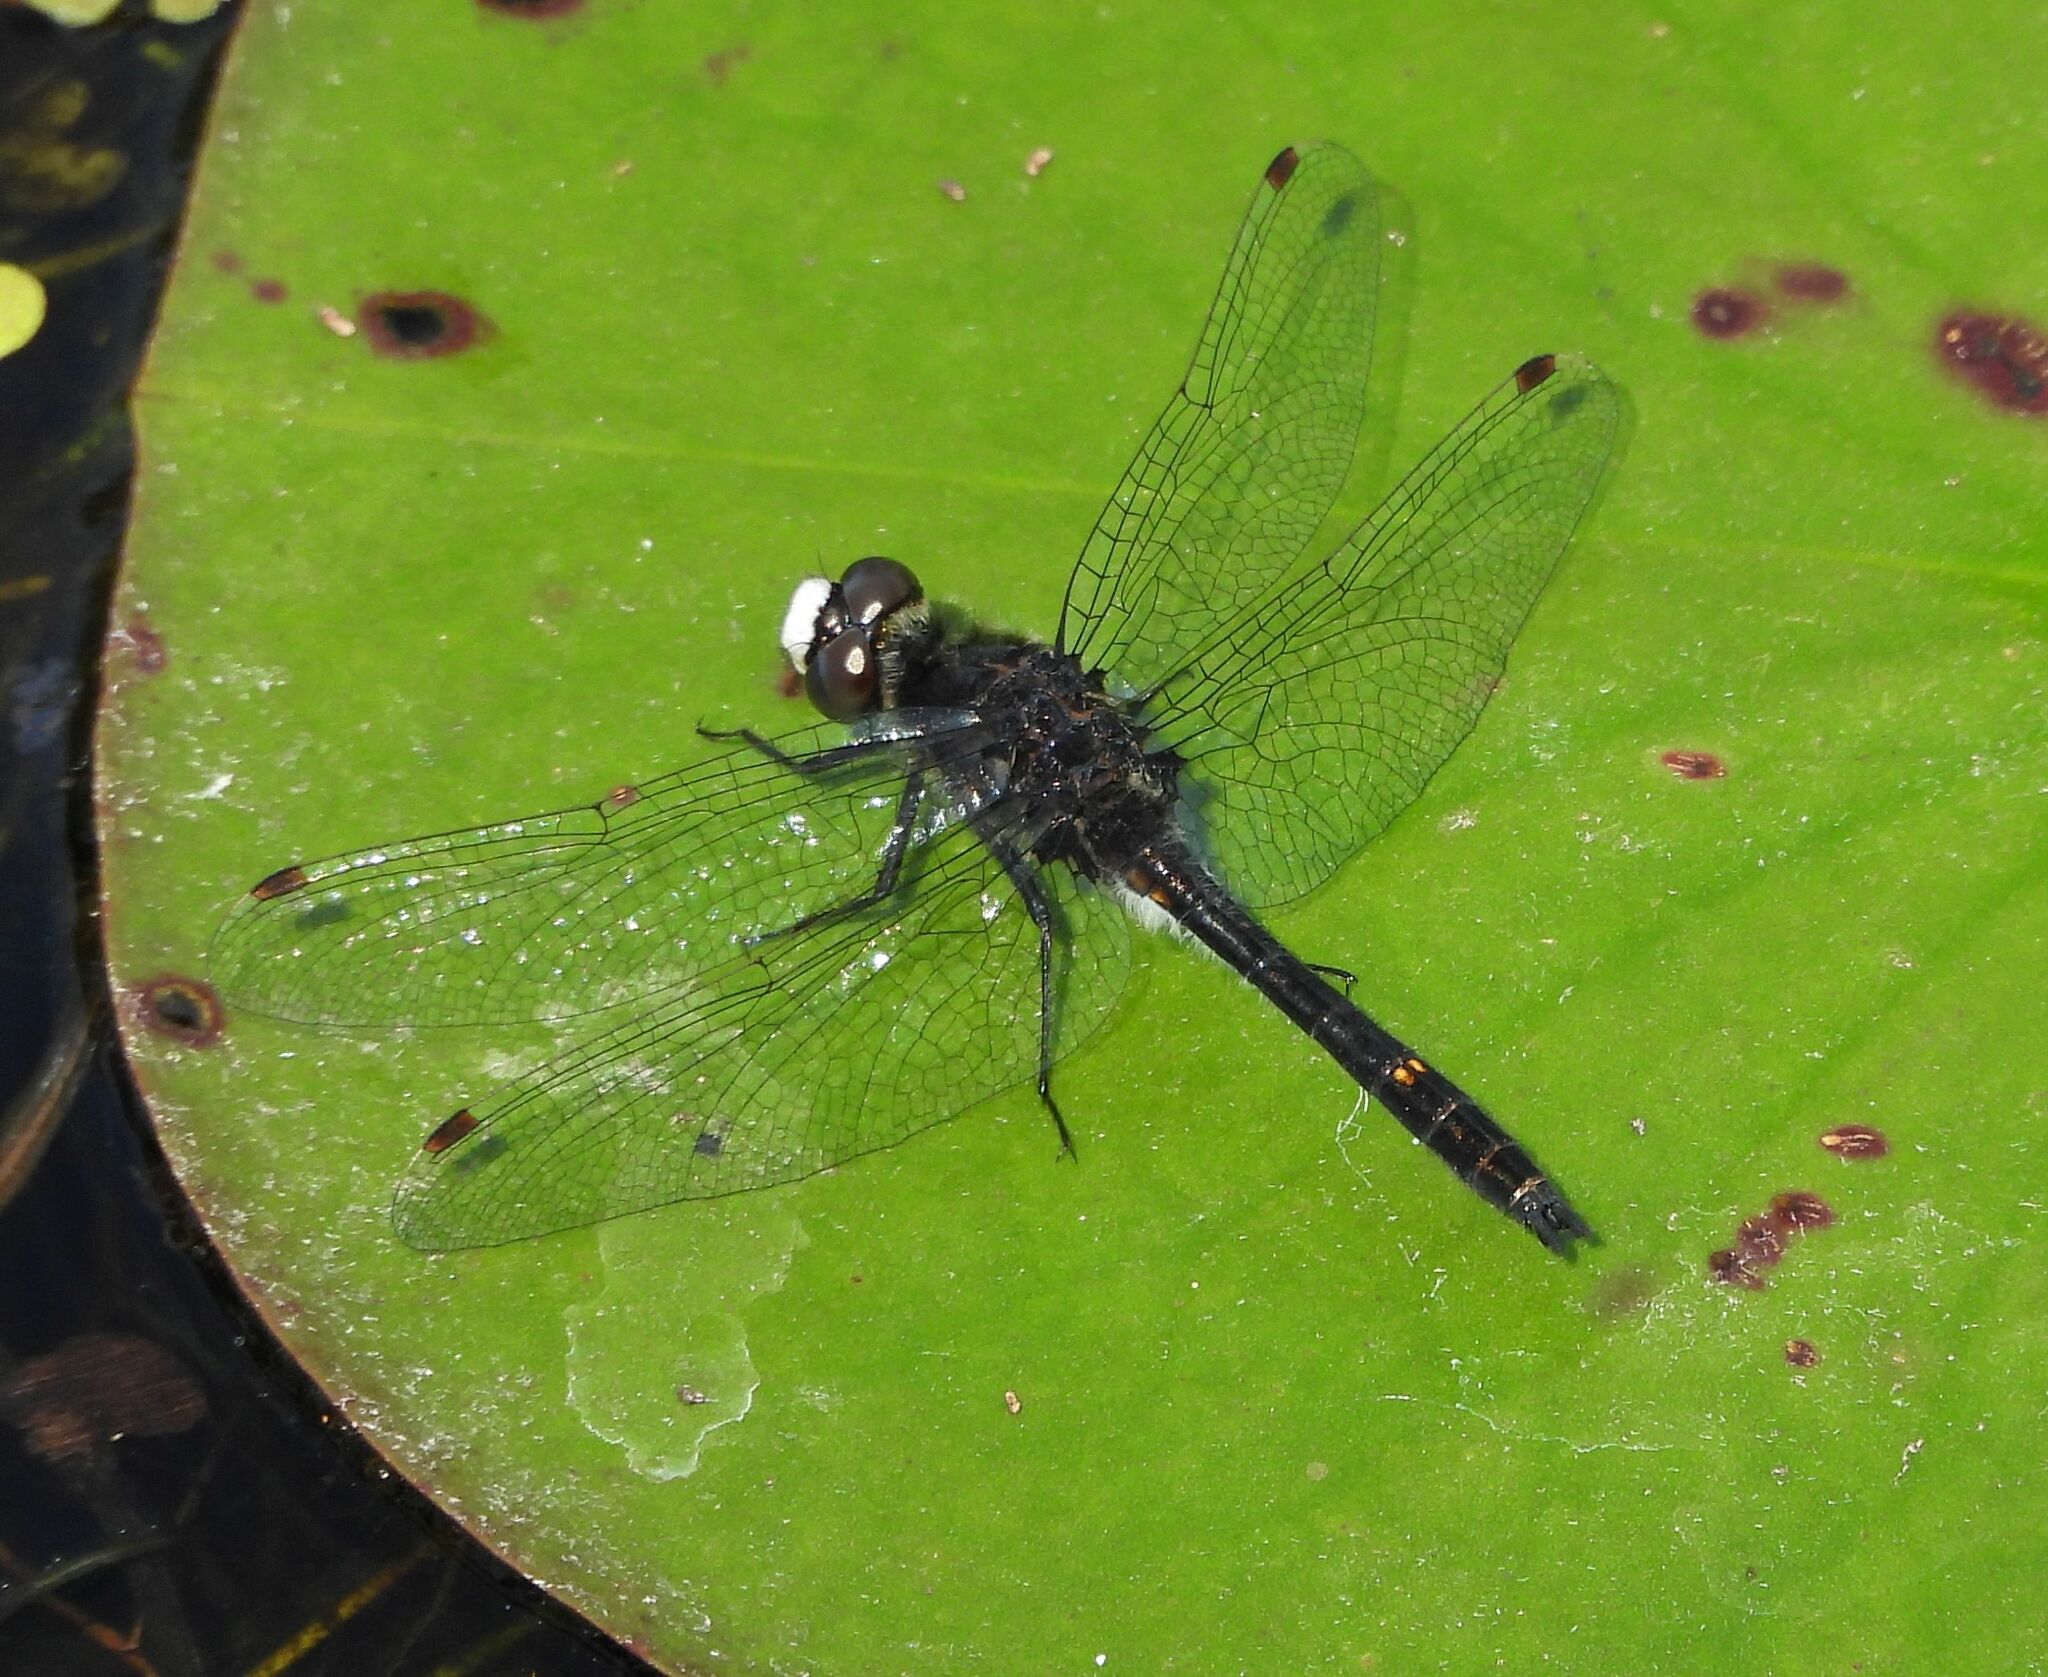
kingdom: Animalia
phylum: Arthropoda
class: Insecta
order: Odonata
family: Libellulidae
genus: Leucorrhinia
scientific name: Leucorrhinia intacta
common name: Dot-tailed whiteface
